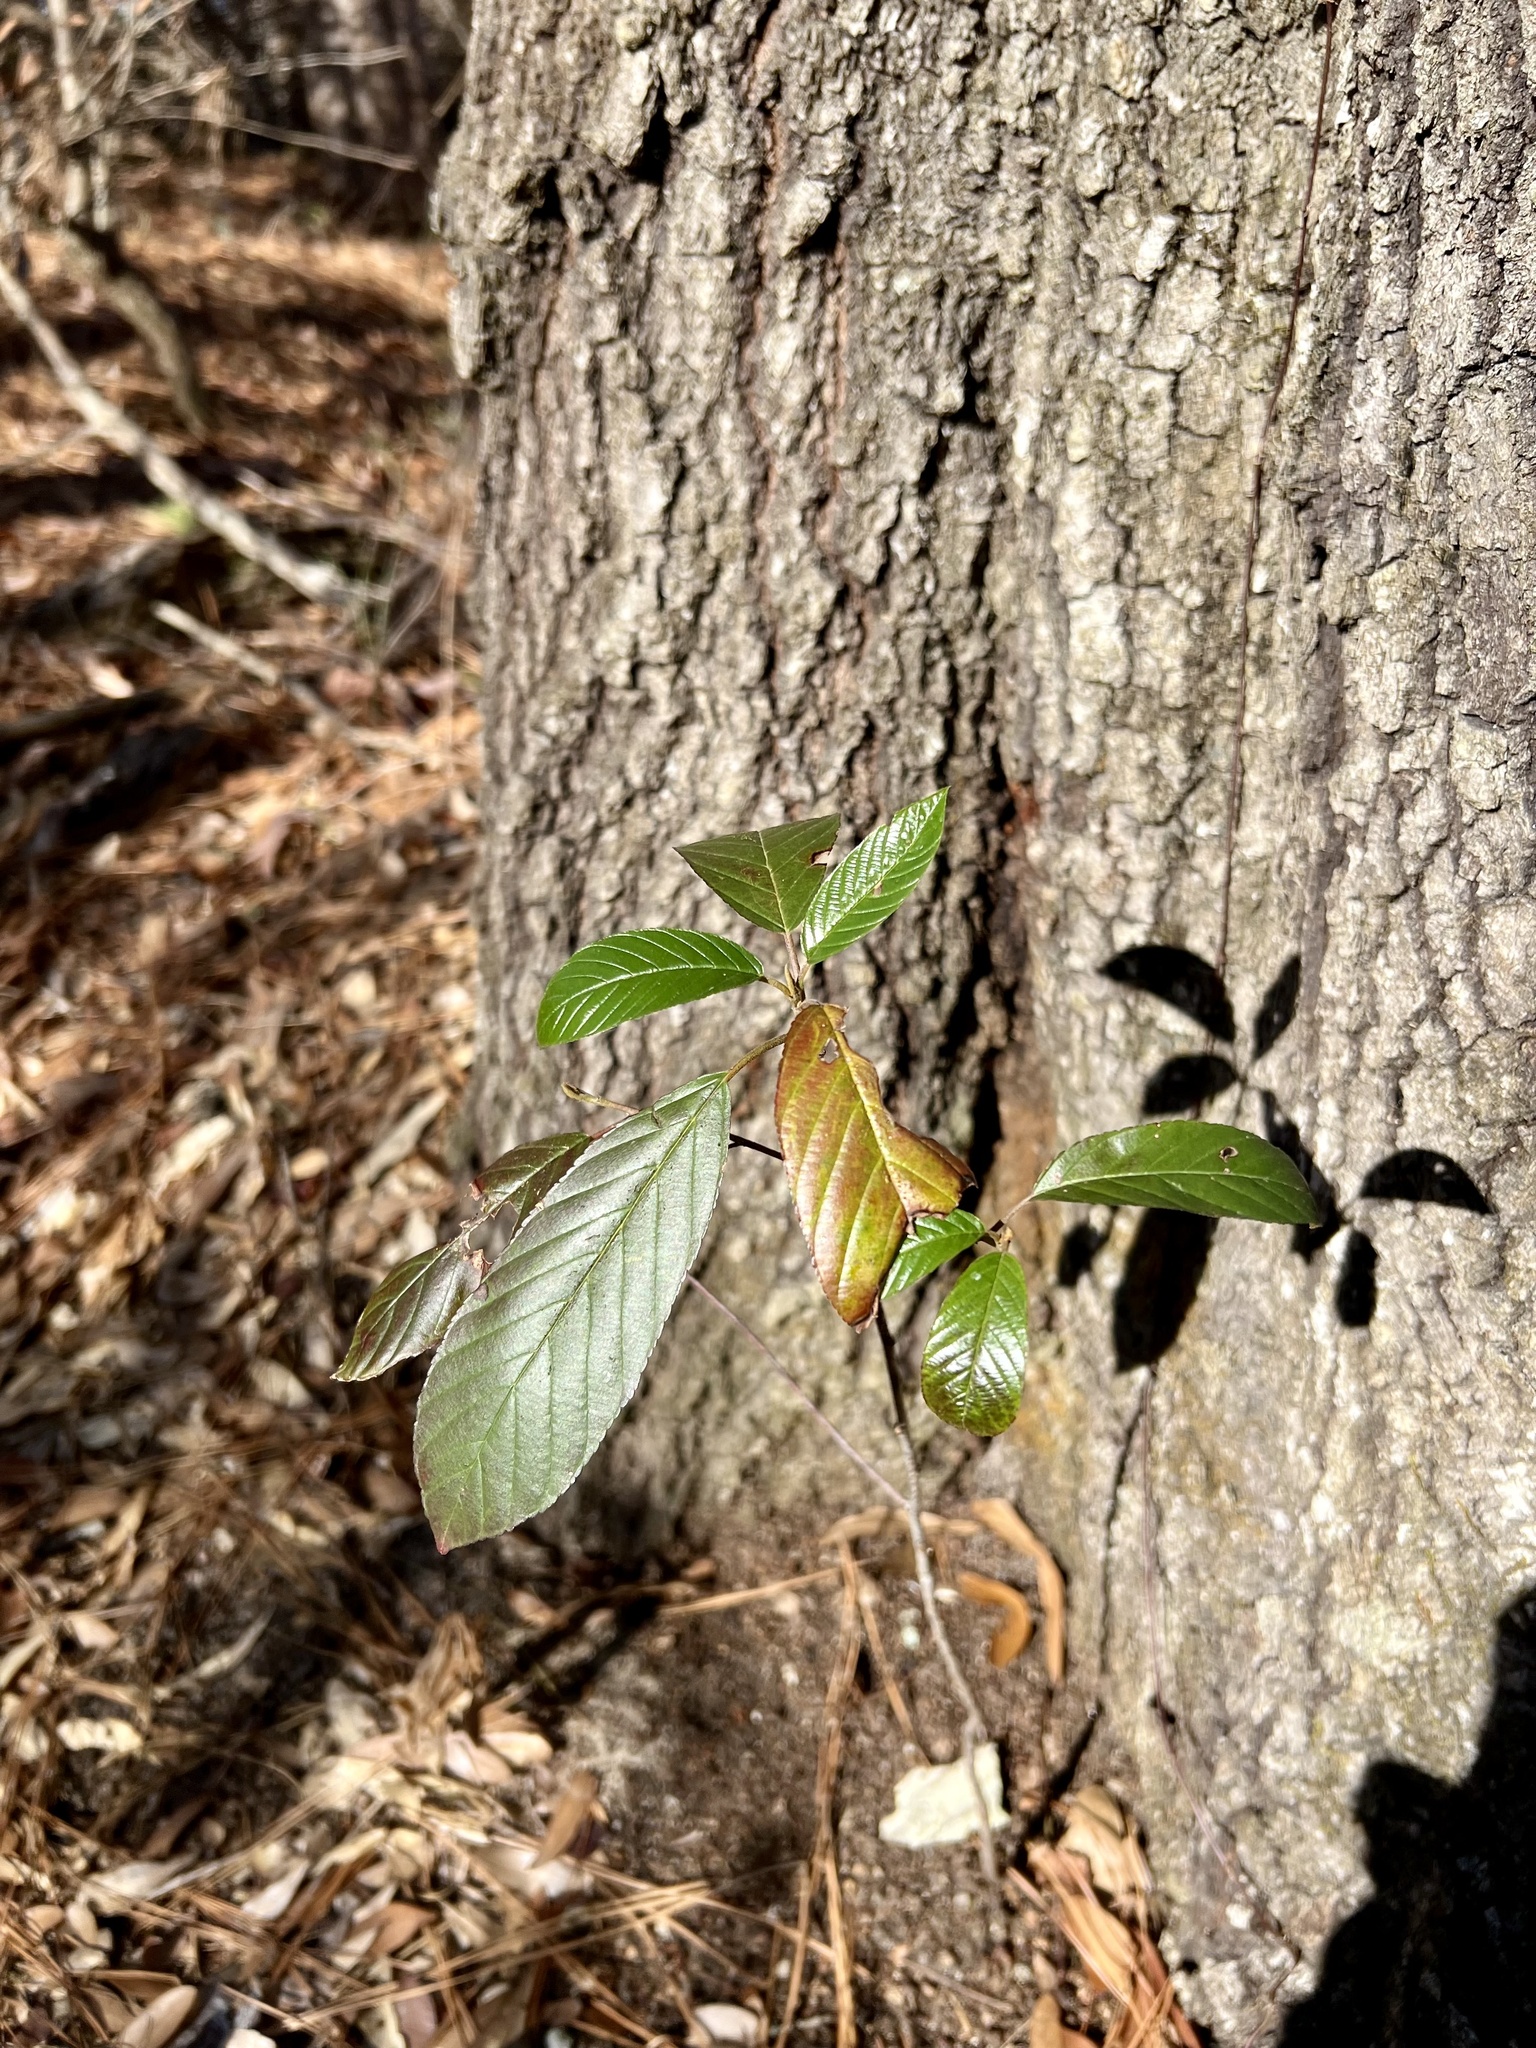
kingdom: Plantae
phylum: Tracheophyta
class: Magnoliopsida
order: Rosales
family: Rhamnaceae
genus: Frangula
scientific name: Frangula caroliniana
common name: Carolina buckthorn
